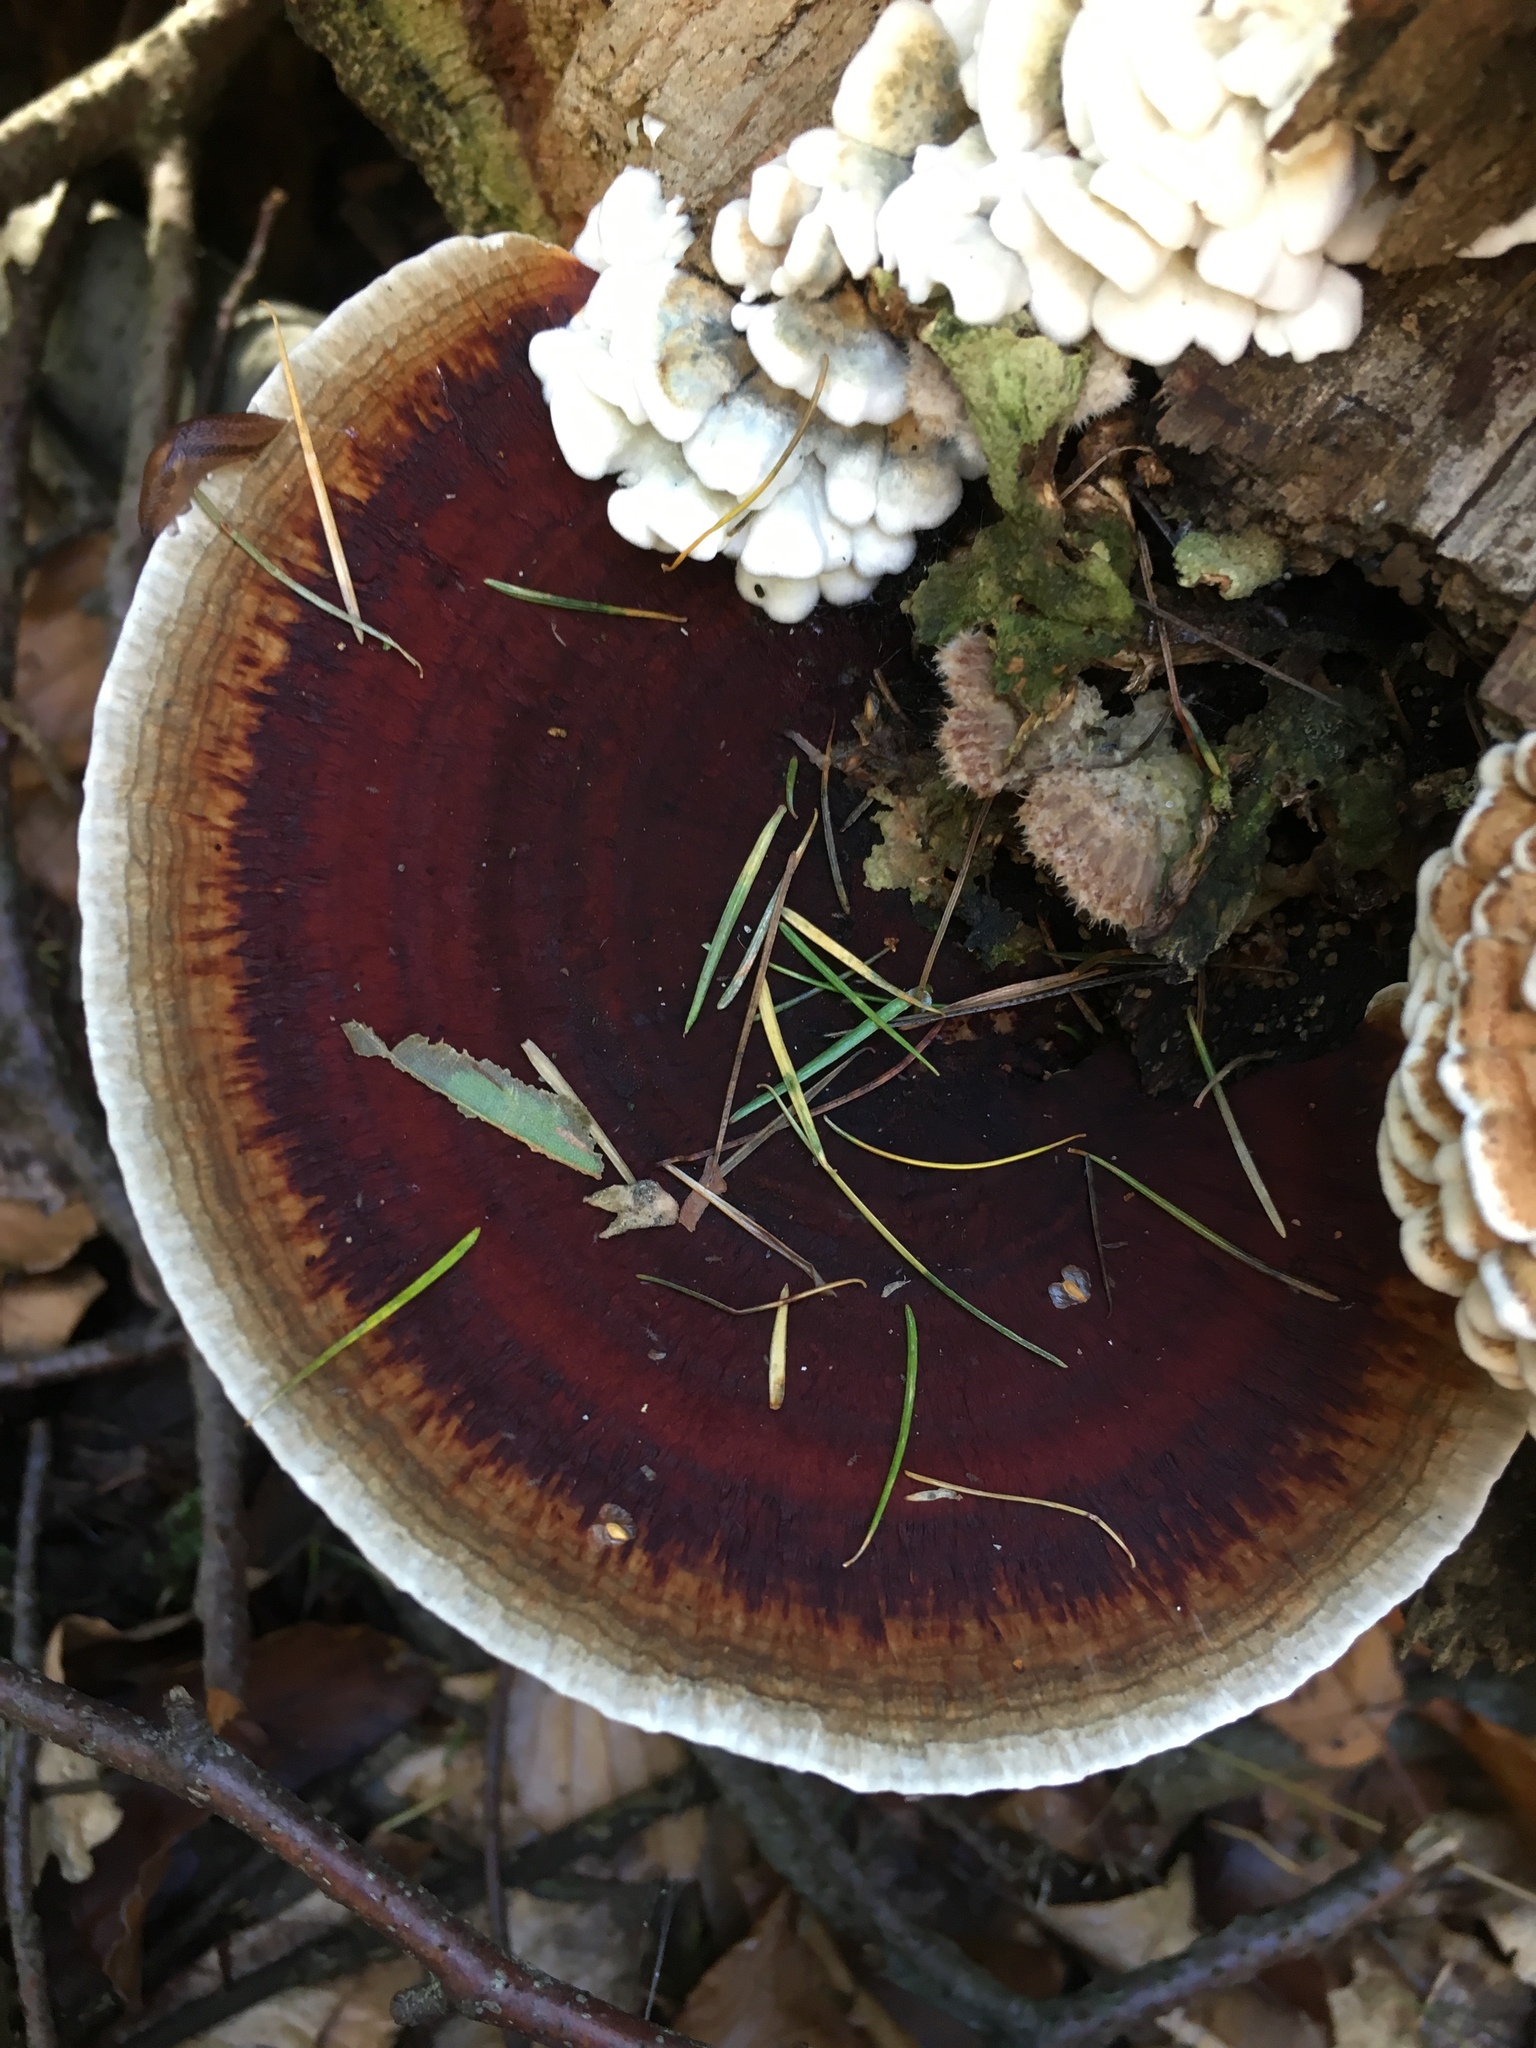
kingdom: Fungi
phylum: Basidiomycota
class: Agaricomycetes
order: Polyporales
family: Polyporaceae
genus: Daedaleopsis
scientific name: Daedaleopsis tricolor
